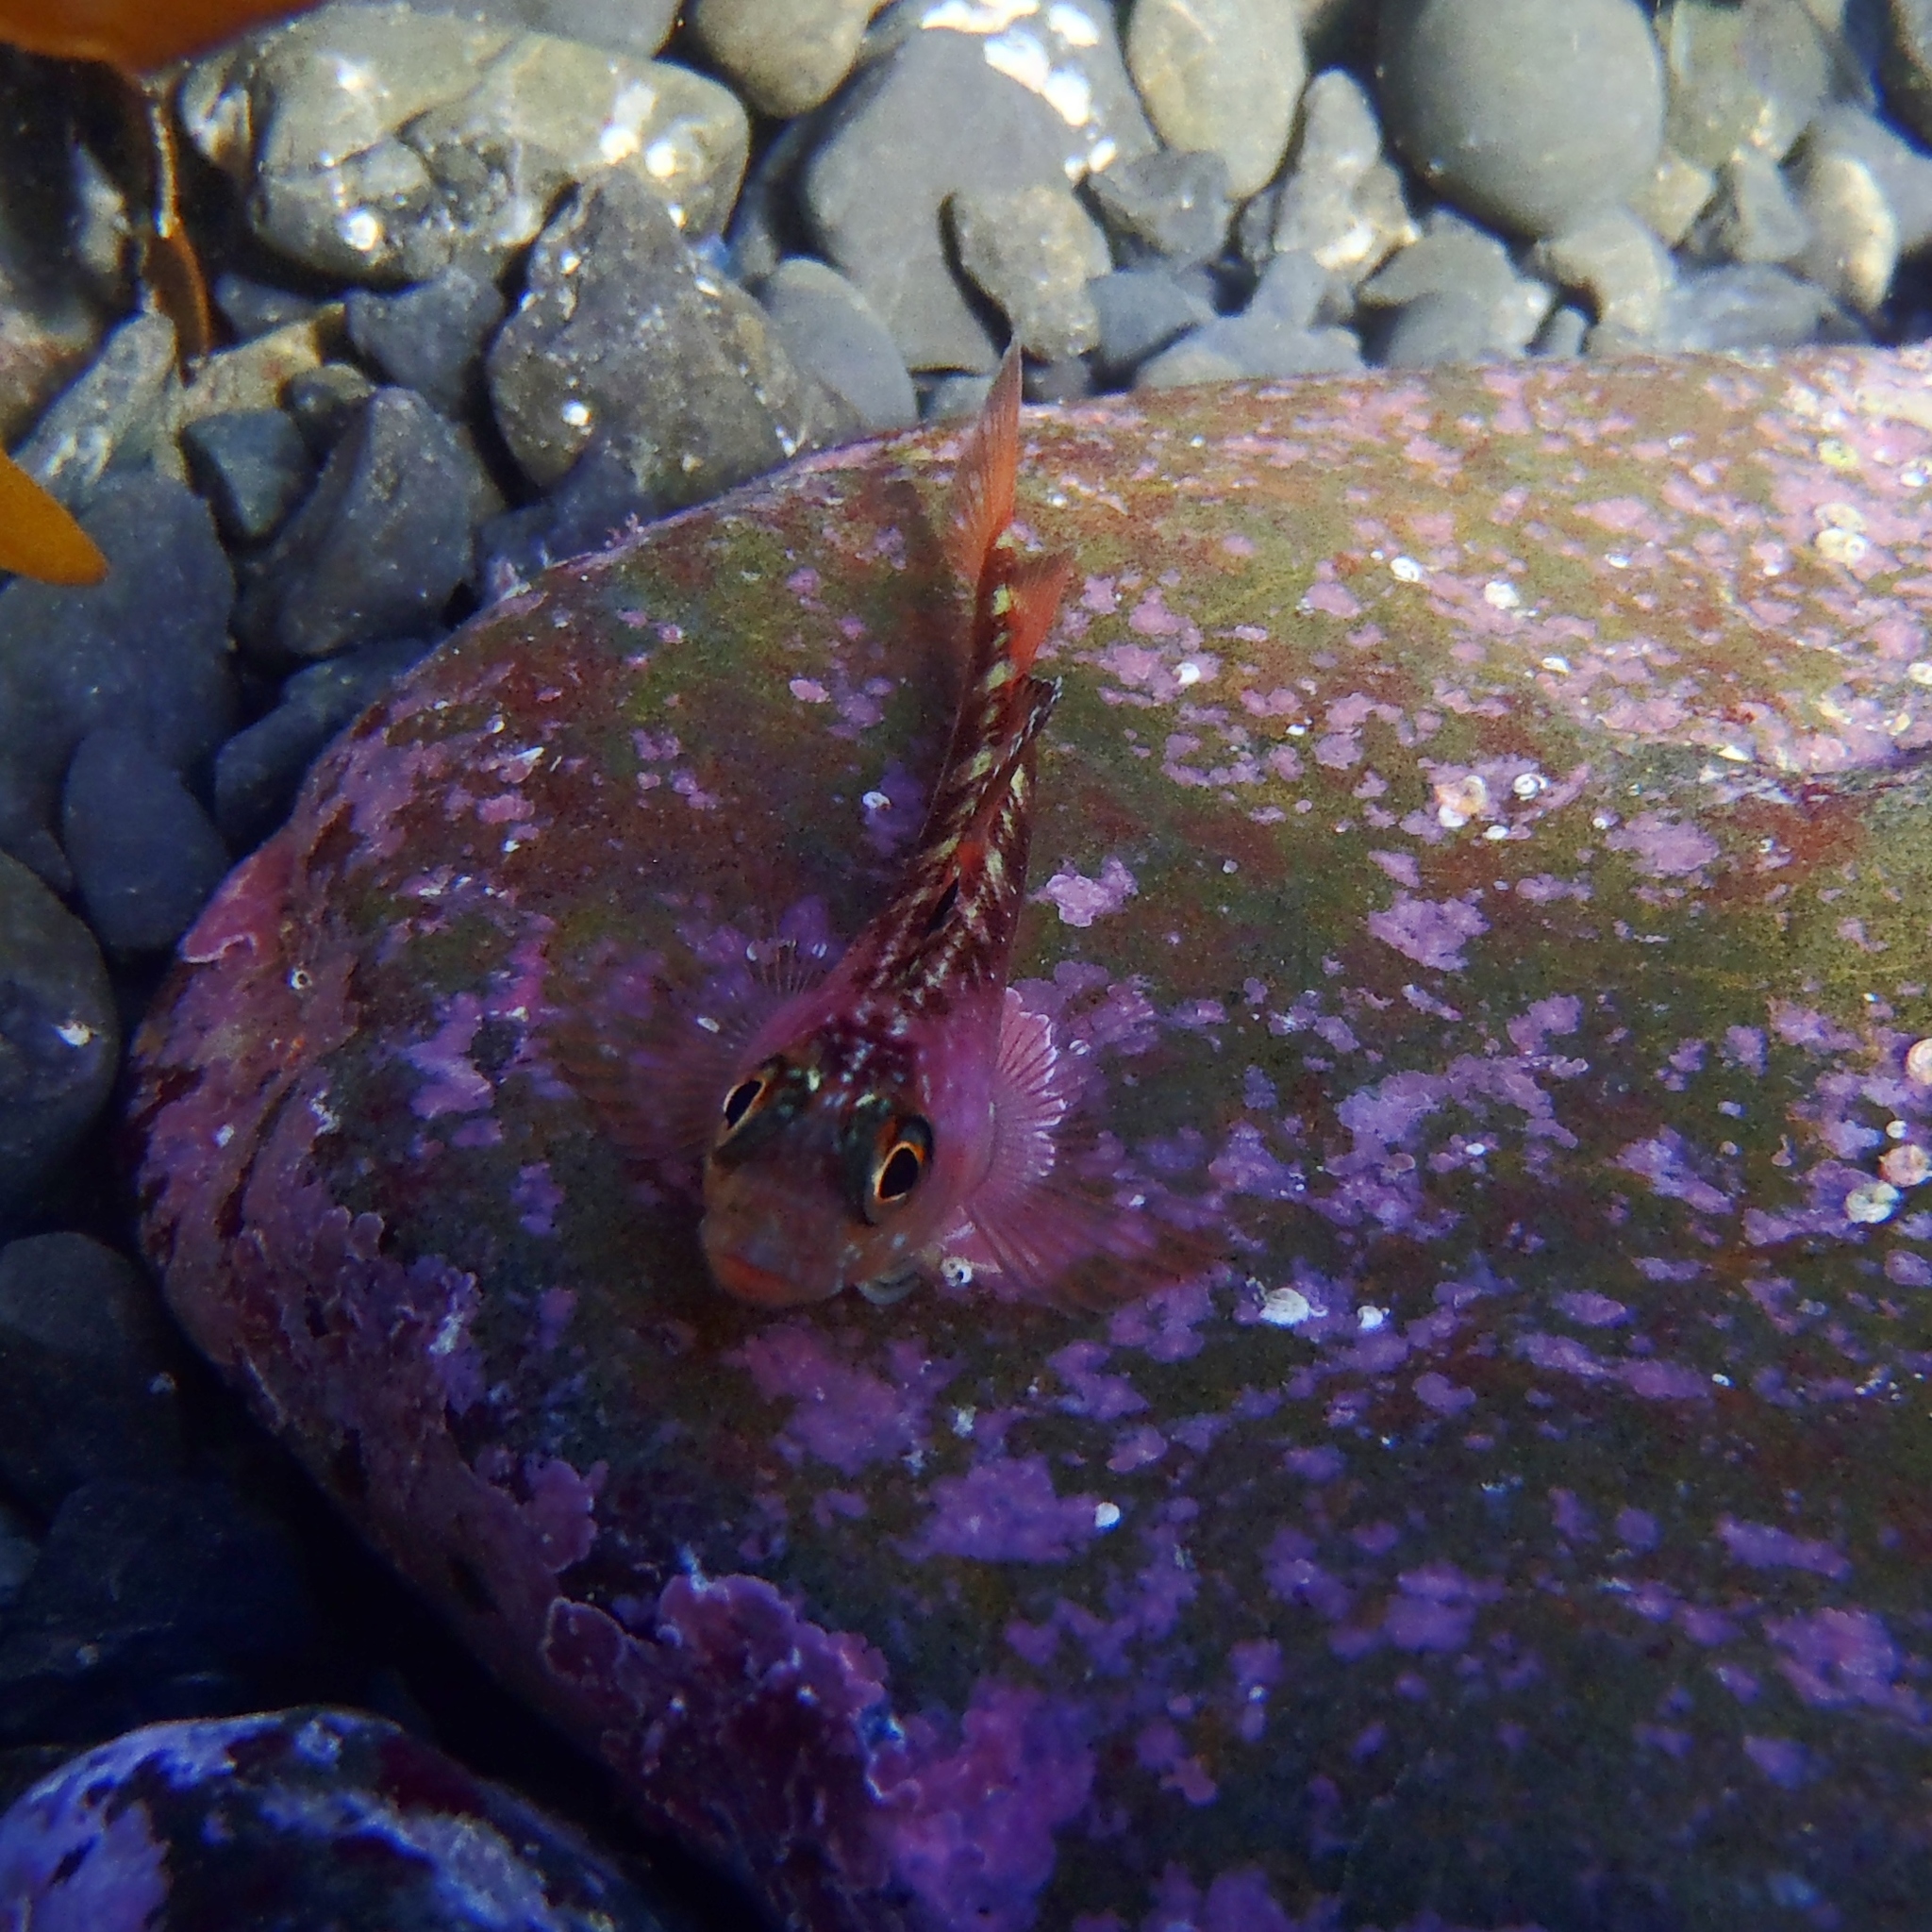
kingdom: Animalia
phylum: Chordata
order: Perciformes
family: Tripterygiidae
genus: Forsterygion
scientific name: Forsterygion varium
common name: Variable triplefin
